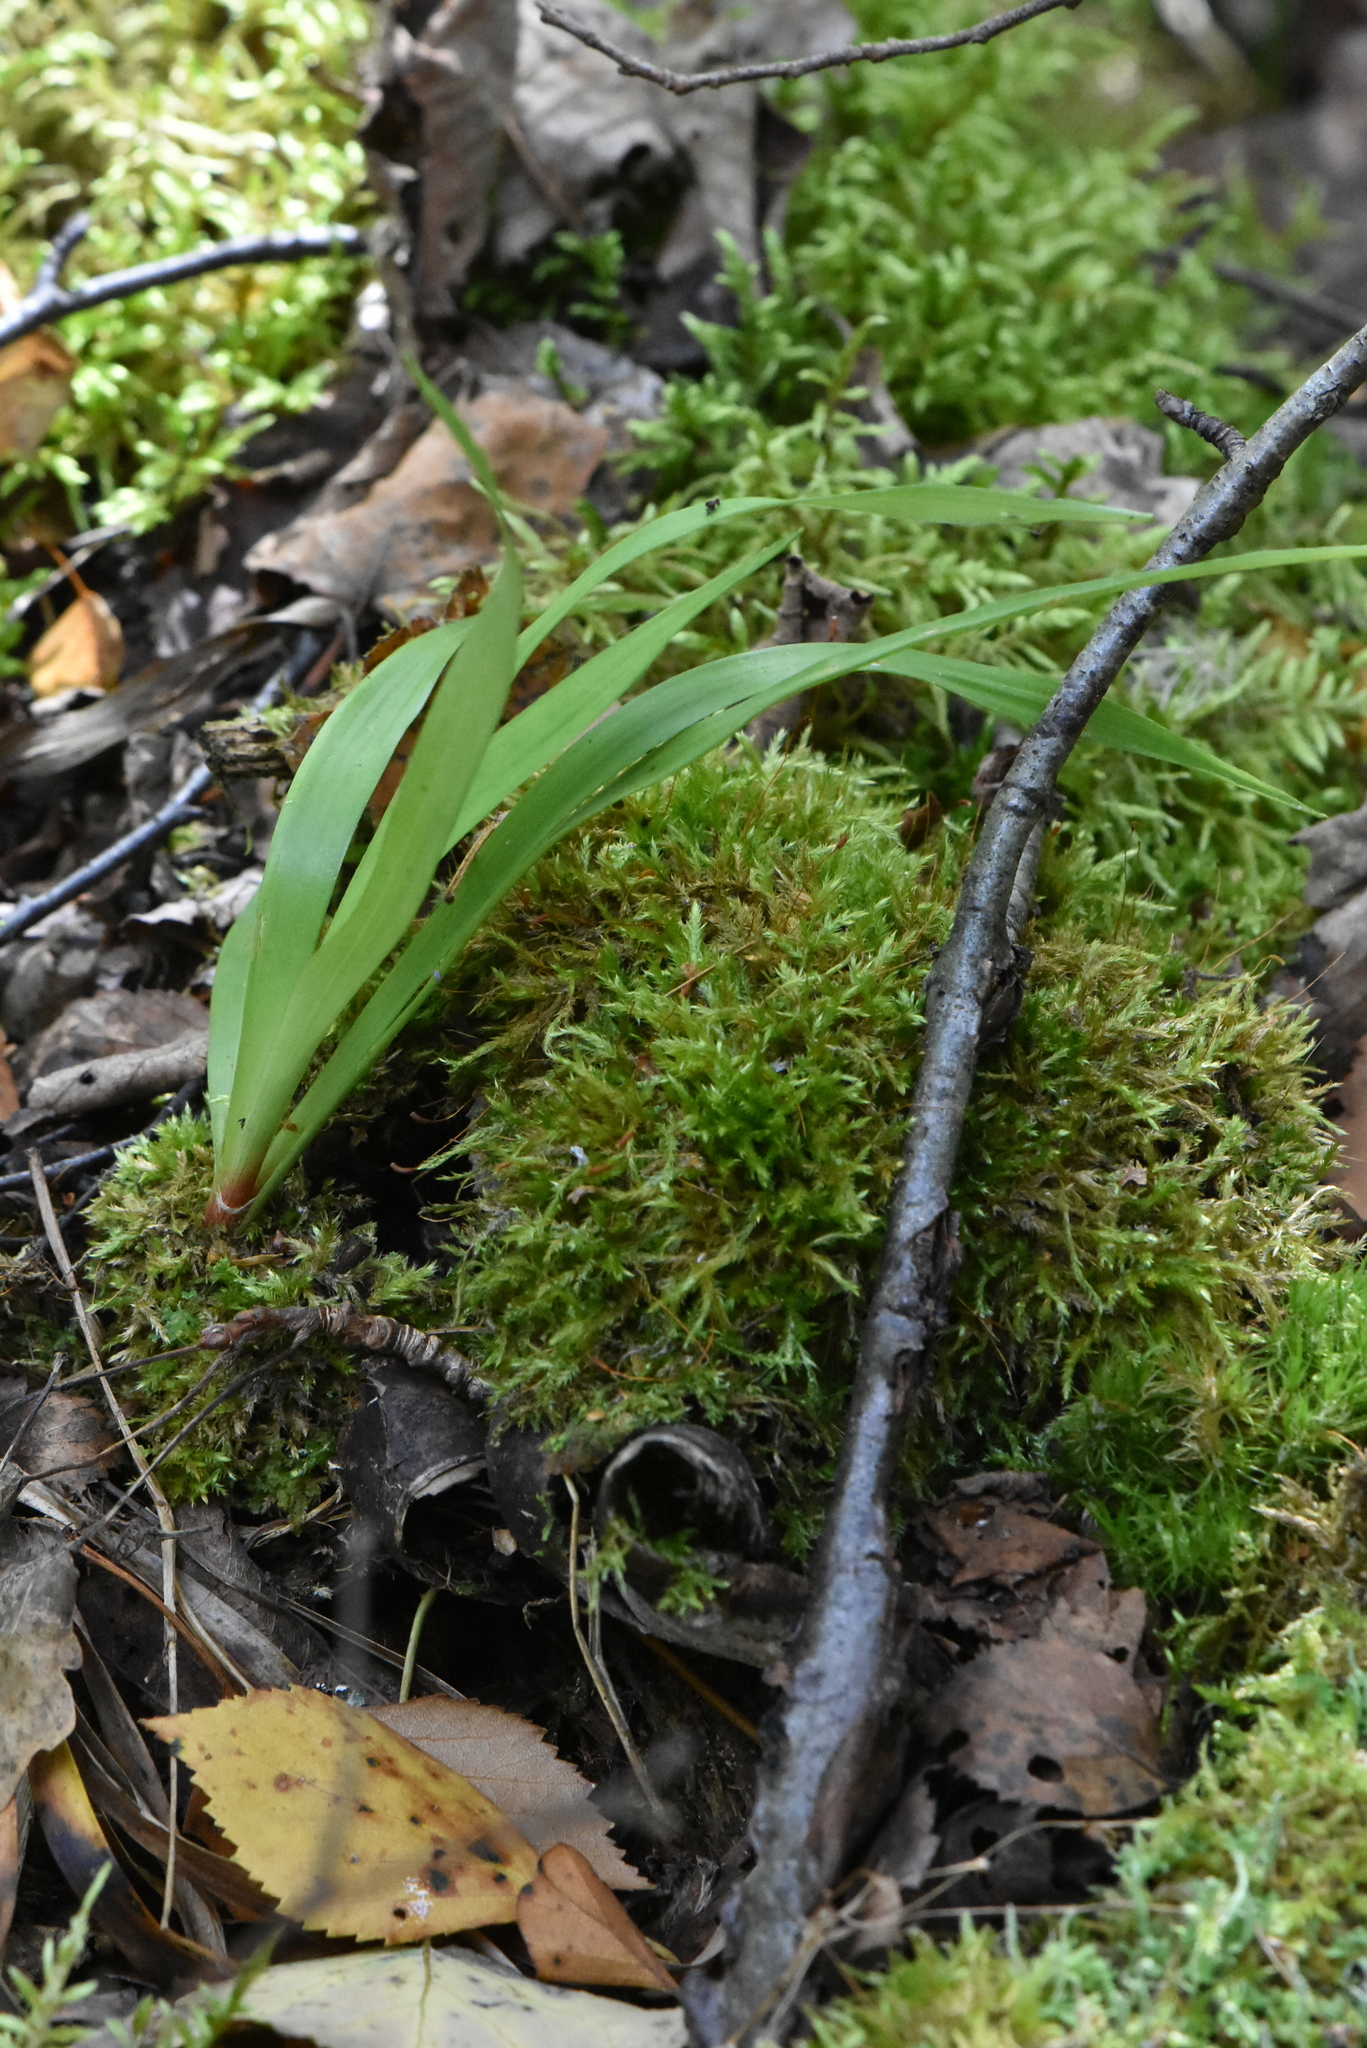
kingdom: Plantae
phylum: Tracheophyta
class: Liliopsida
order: Poales
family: Juncaceae
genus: Luzula
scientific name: Luzula pilosa
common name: Hairy wood-rush
